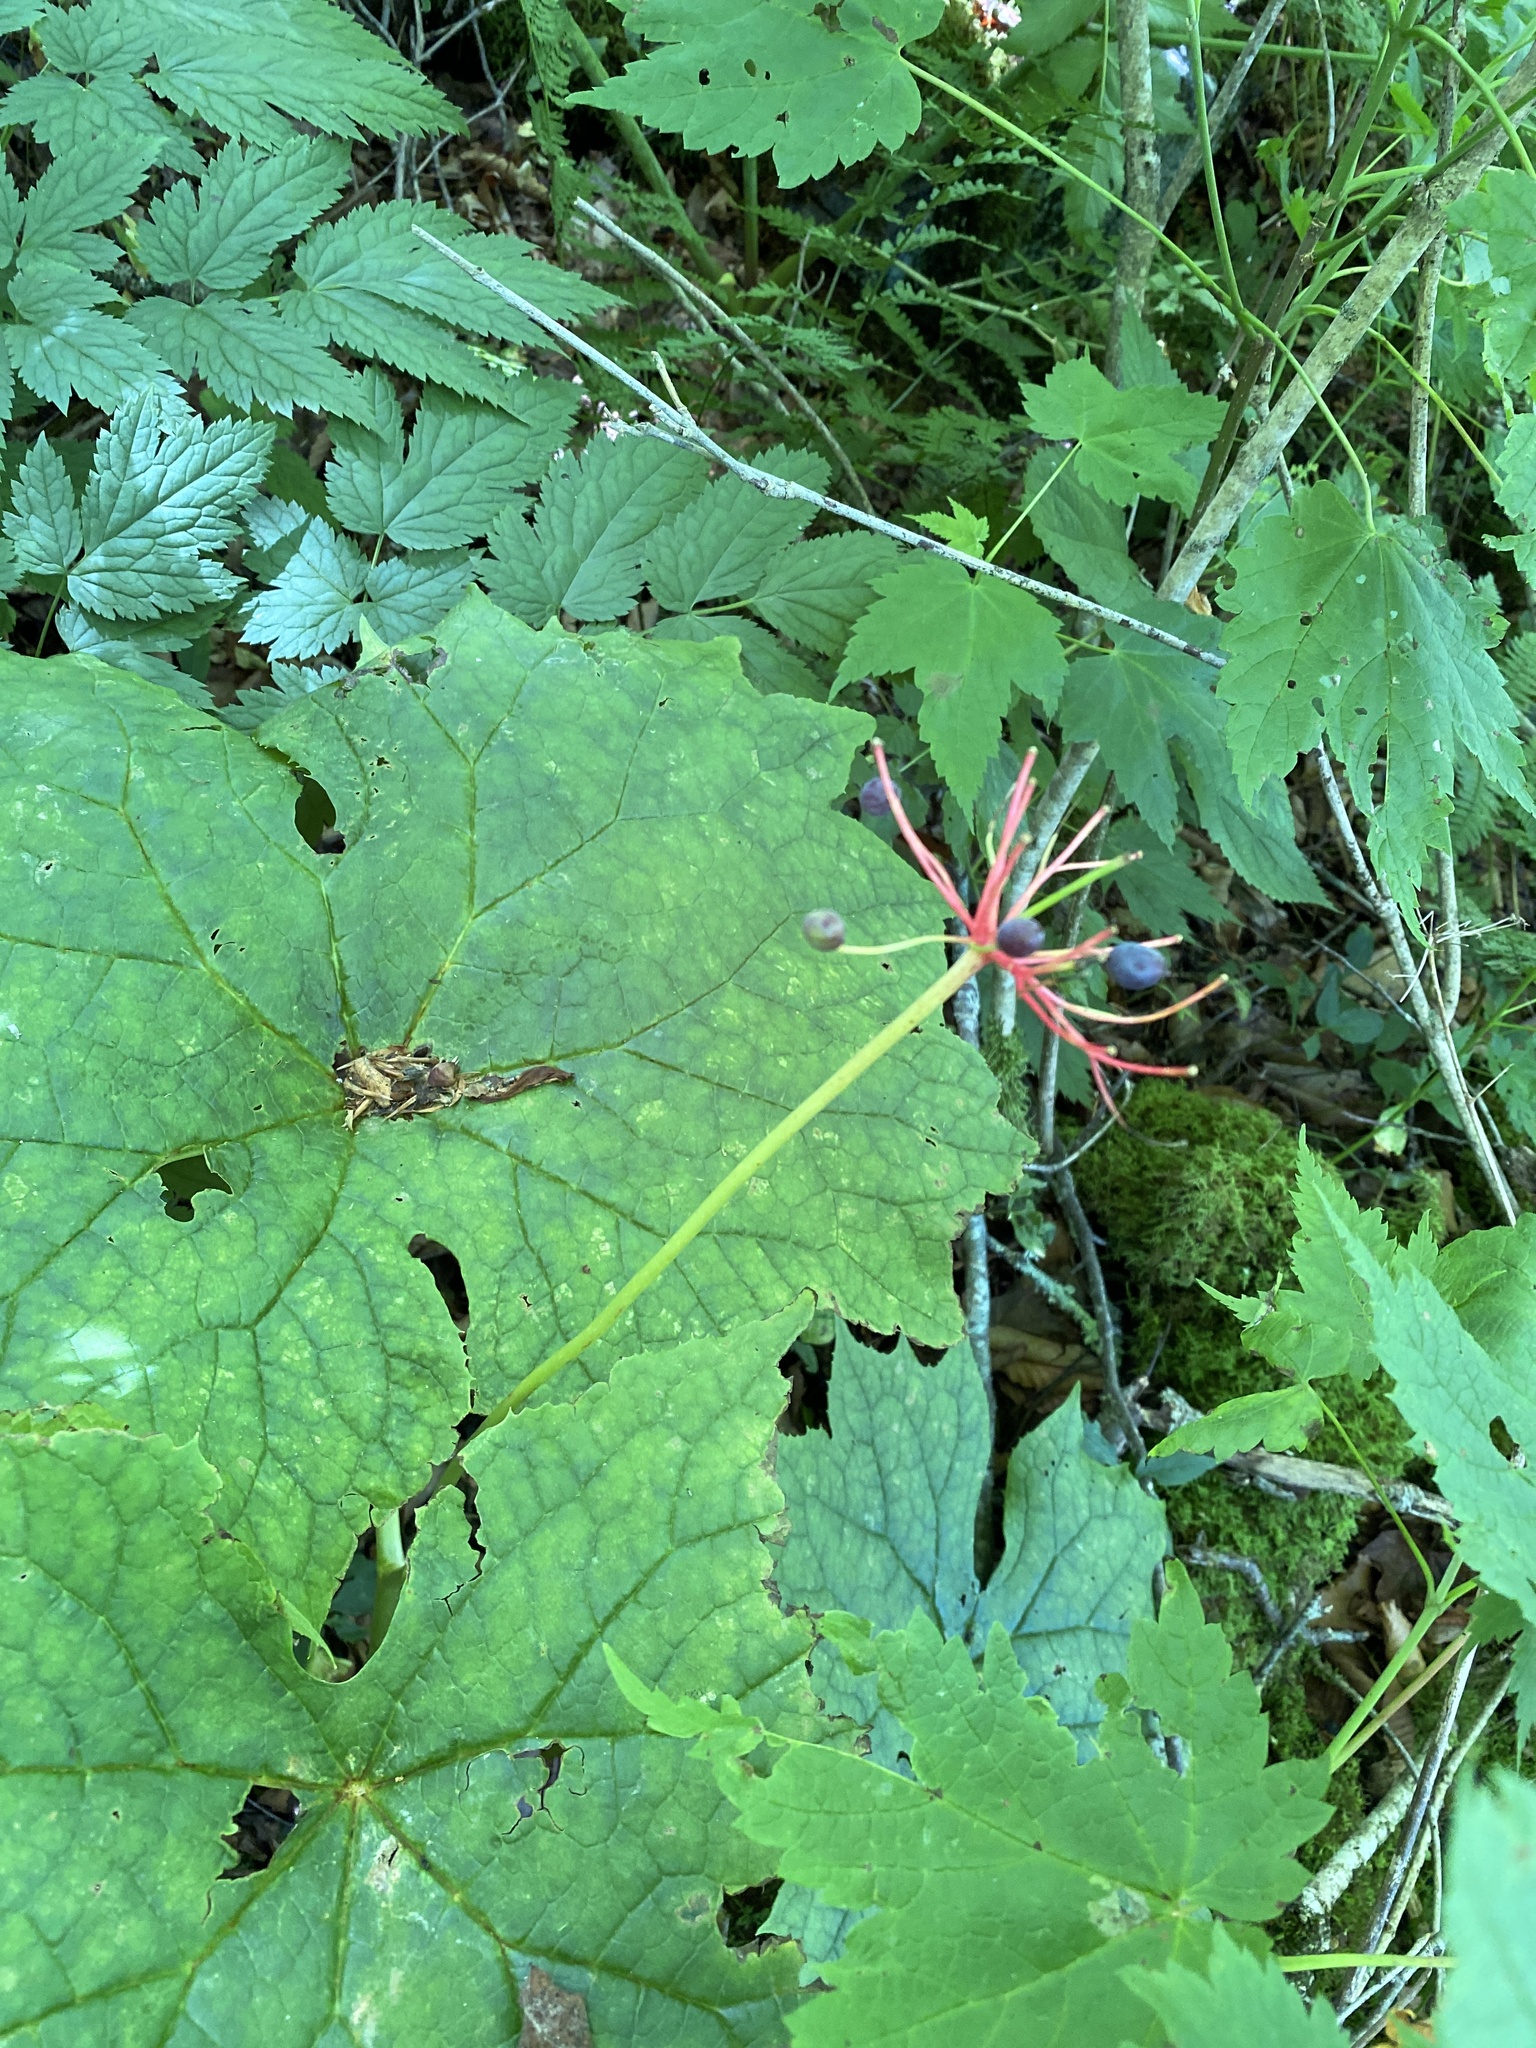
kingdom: Plantae
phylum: Tracheophyta
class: Magnoliopsida
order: Ranunculales
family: Berberidaceae
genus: Diphylleia
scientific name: Diphylleia cymosa
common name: Umbrella-leaf
